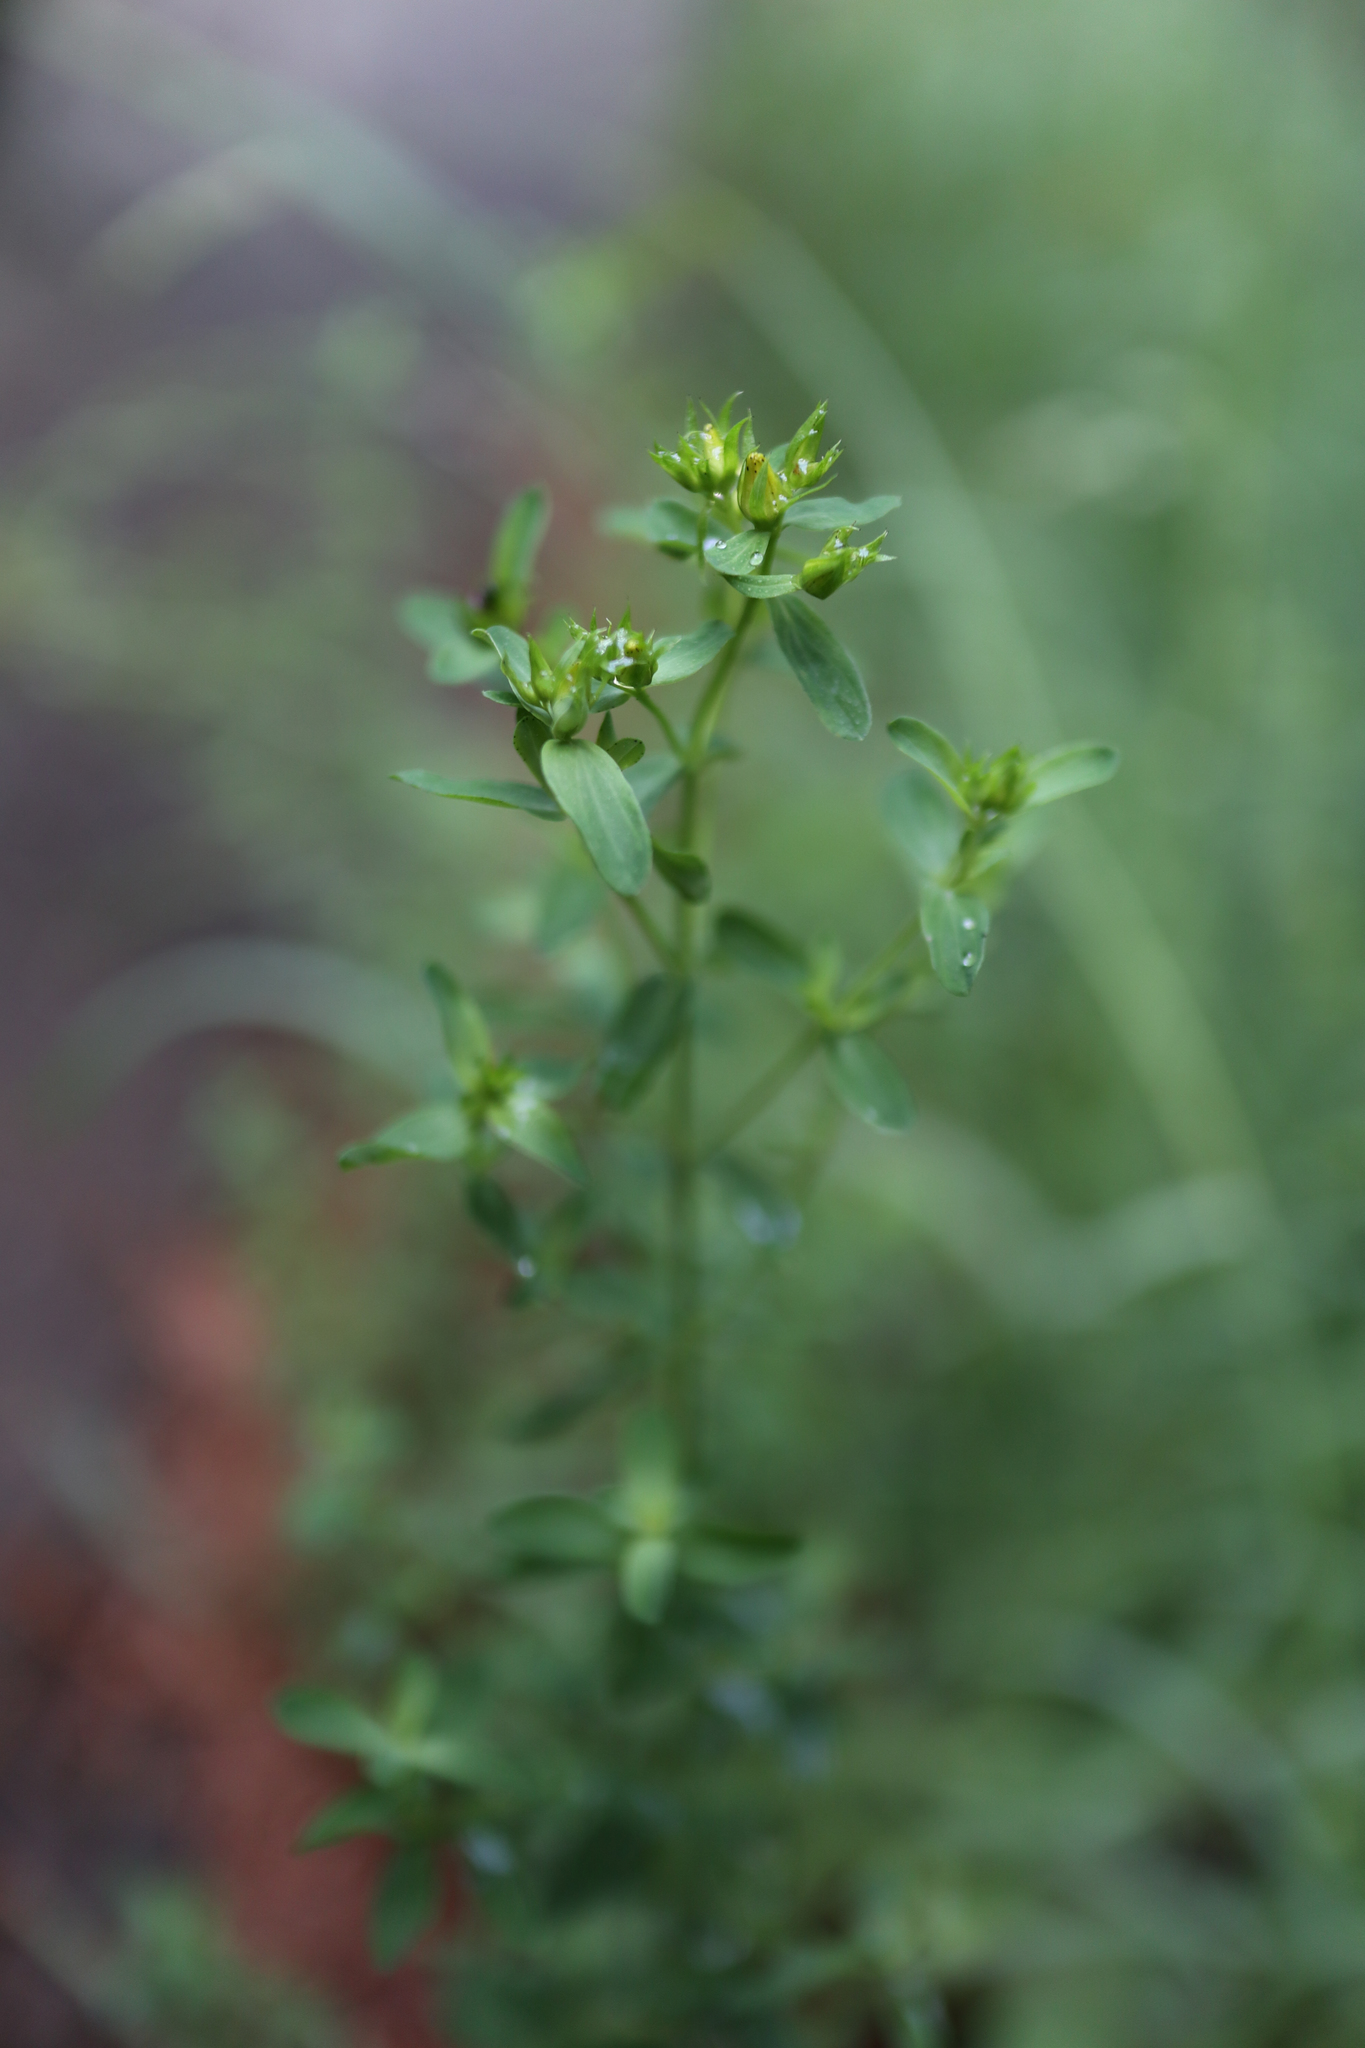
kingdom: Plantae
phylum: Tracheophyta
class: Magnoliopsida
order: Malpighiales
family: Hypericaceae
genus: Hypericum
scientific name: Hypericum perforatum
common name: Common st. johnswort
